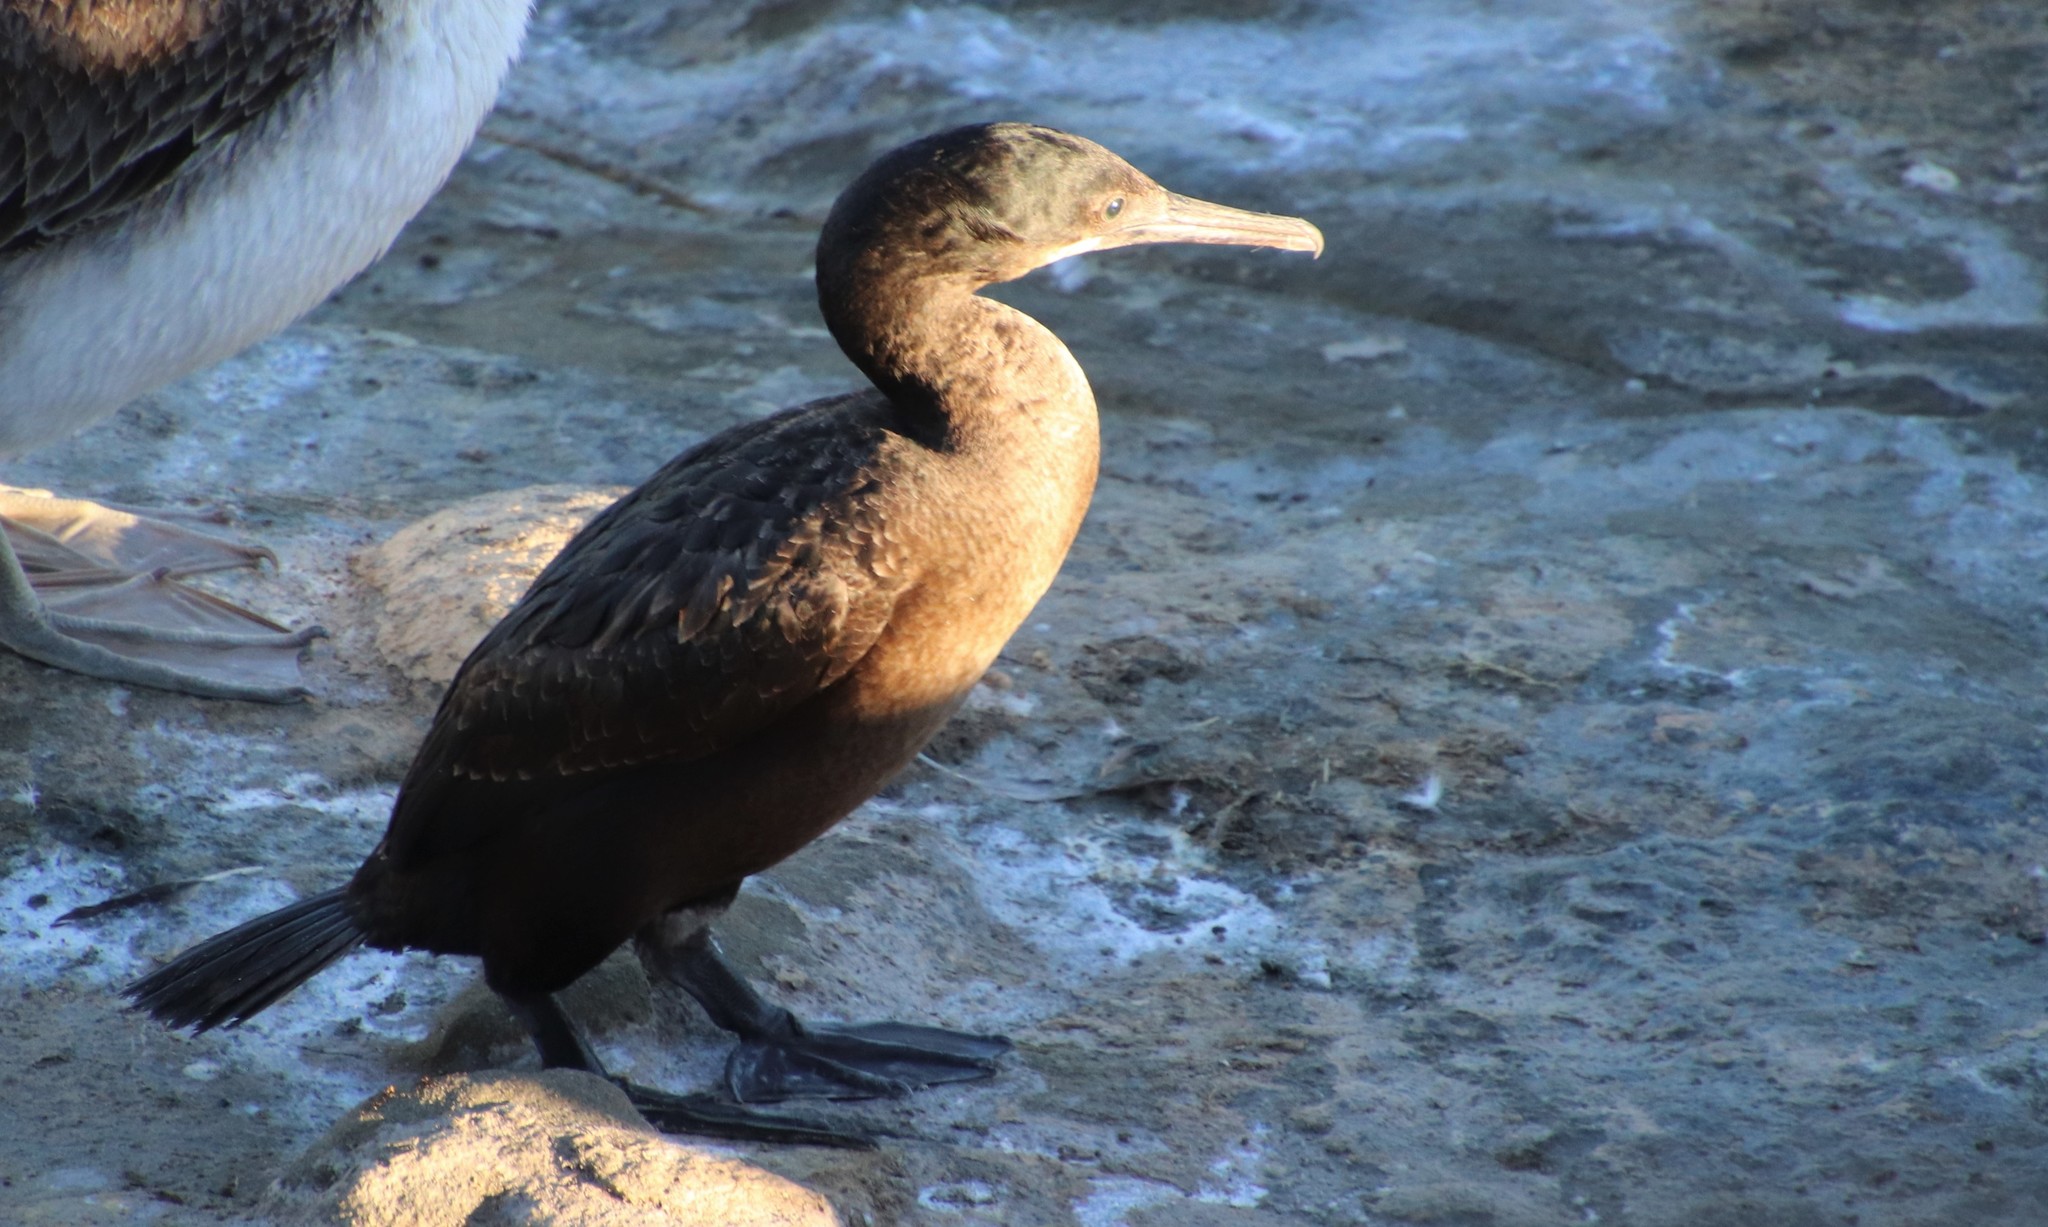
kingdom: Animalia
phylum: Chordata
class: Aves
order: Suliformes
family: Phalacrocoracidae
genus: Urile
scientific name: Urile penicillatus
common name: Brandt's cormorant
